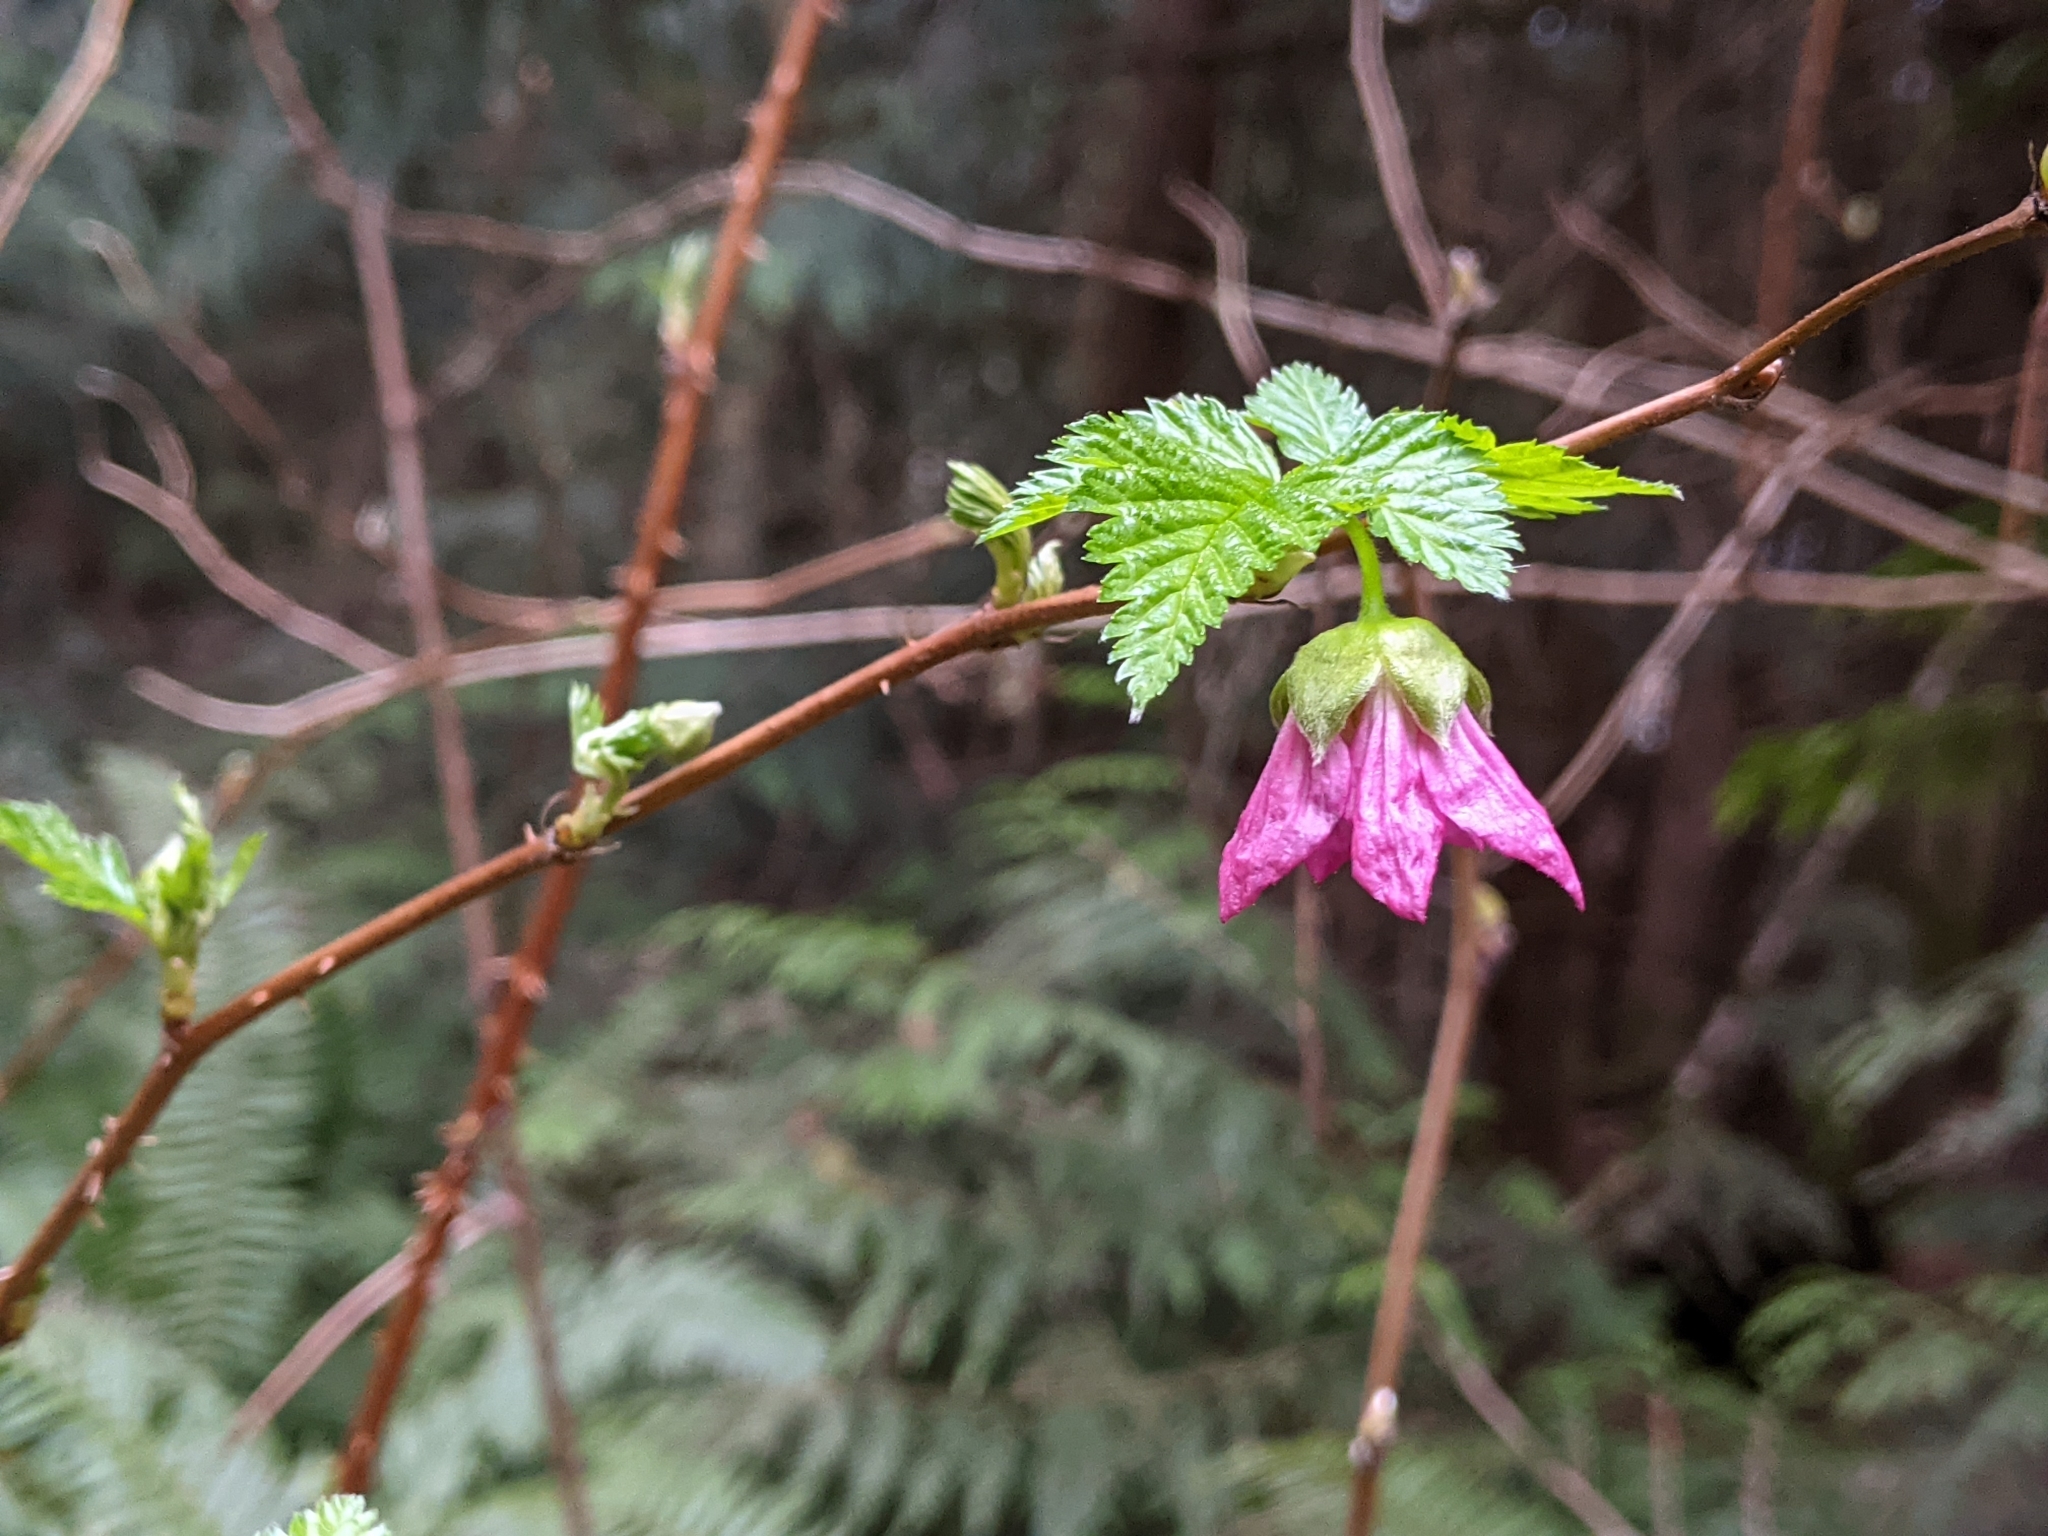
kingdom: Plantae
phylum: Tracheophyta
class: Magnoliopsida
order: Rosales
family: Rosaceae
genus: Rubus
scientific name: Rubus spectabilis
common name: Salmonberry
